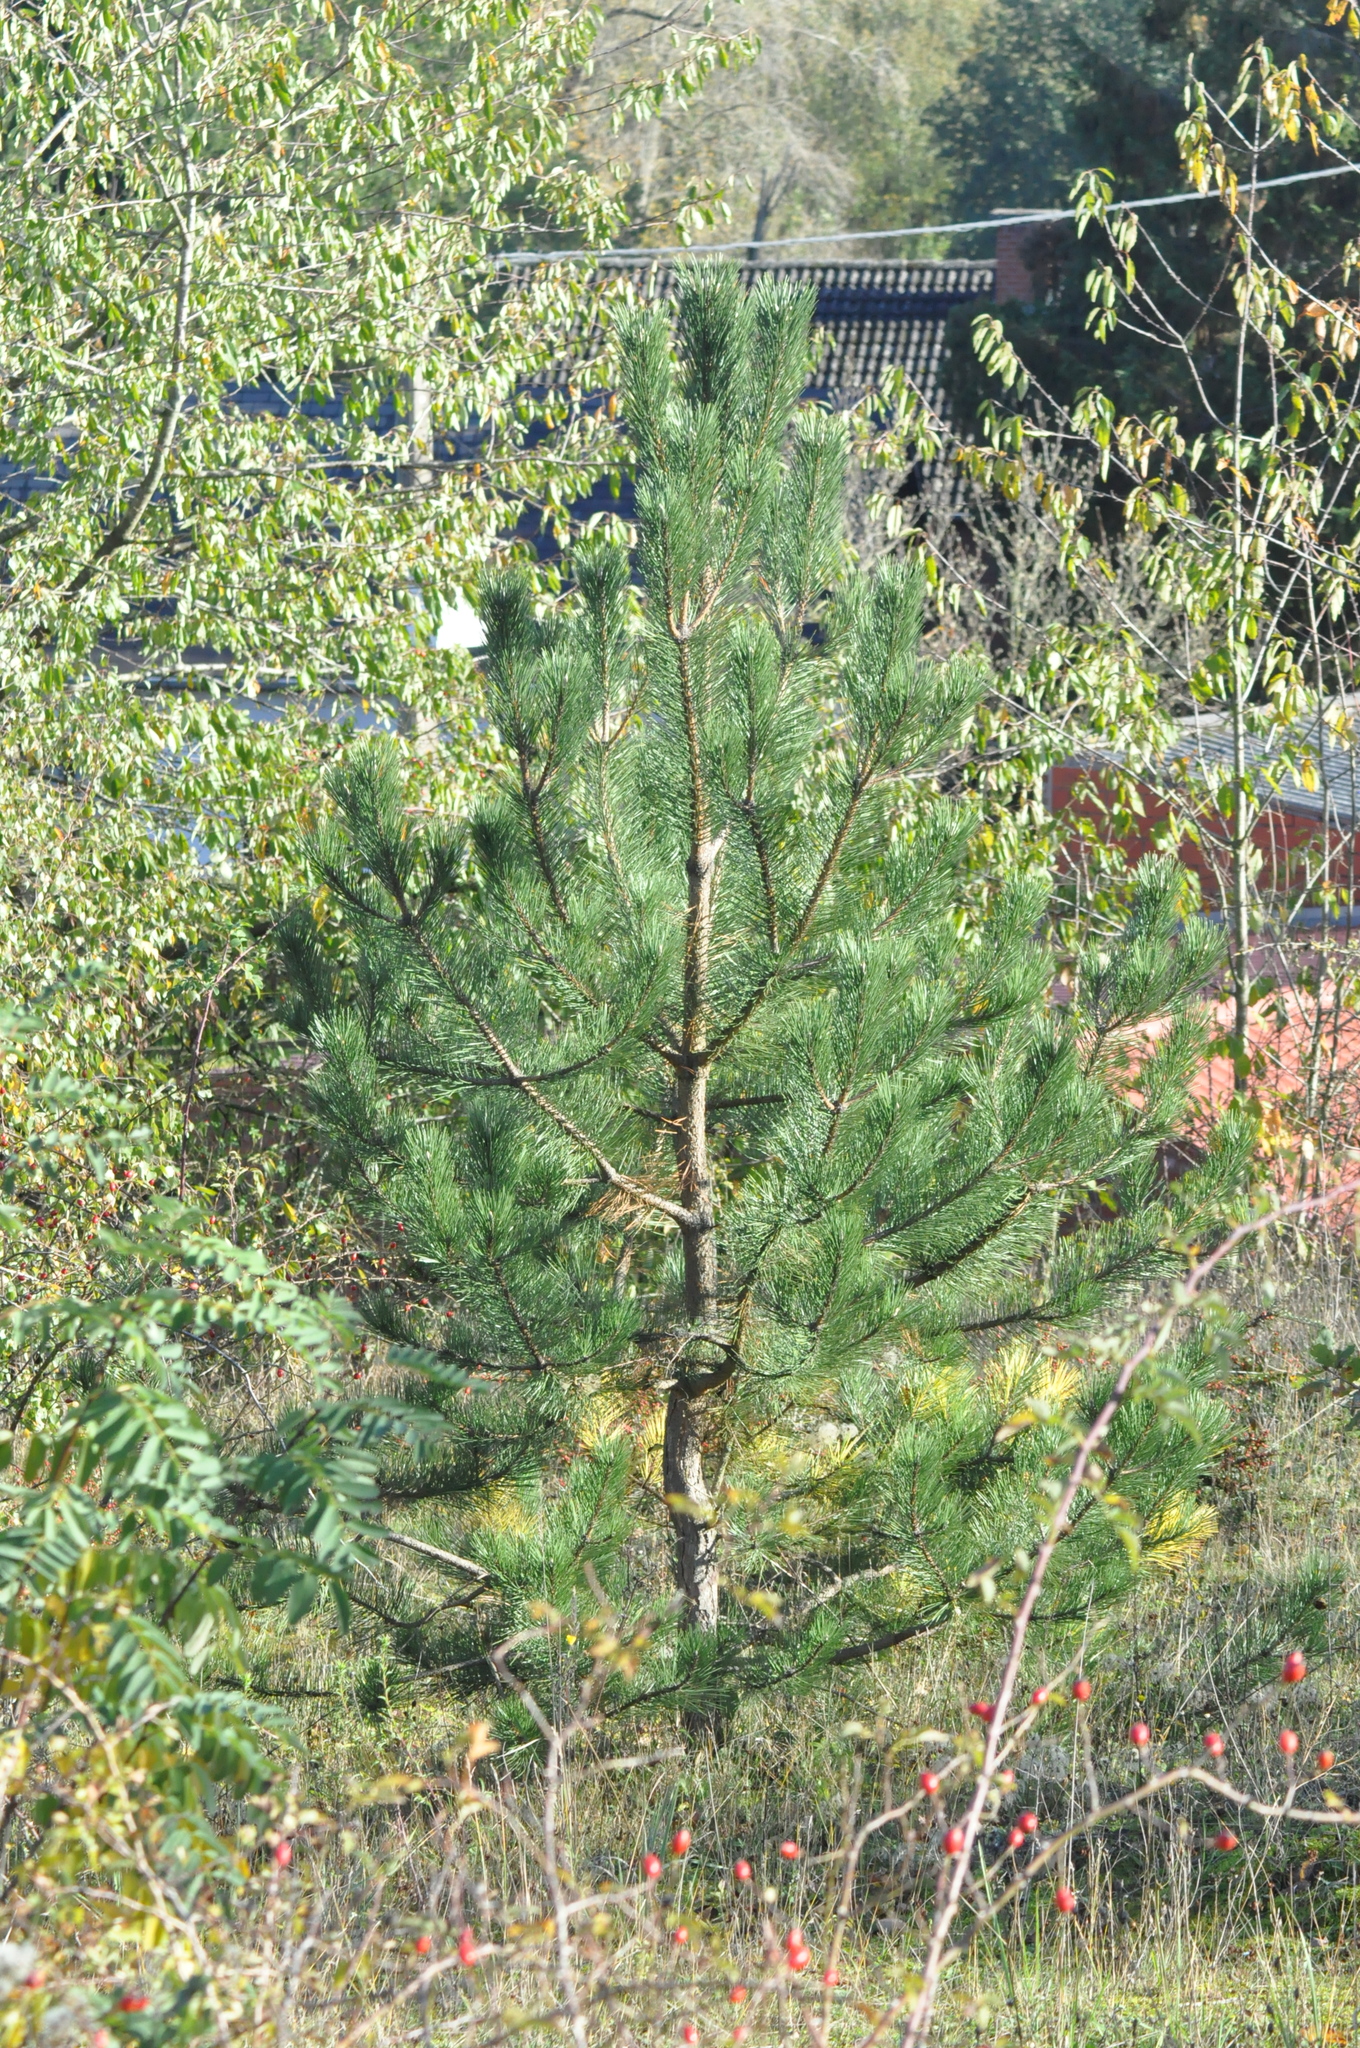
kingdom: Plantae
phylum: Tracheophyta
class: Pinopsida
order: Pinales
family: Pinaceae
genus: Pinus
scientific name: Pinus sylvestris
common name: Scots pine
